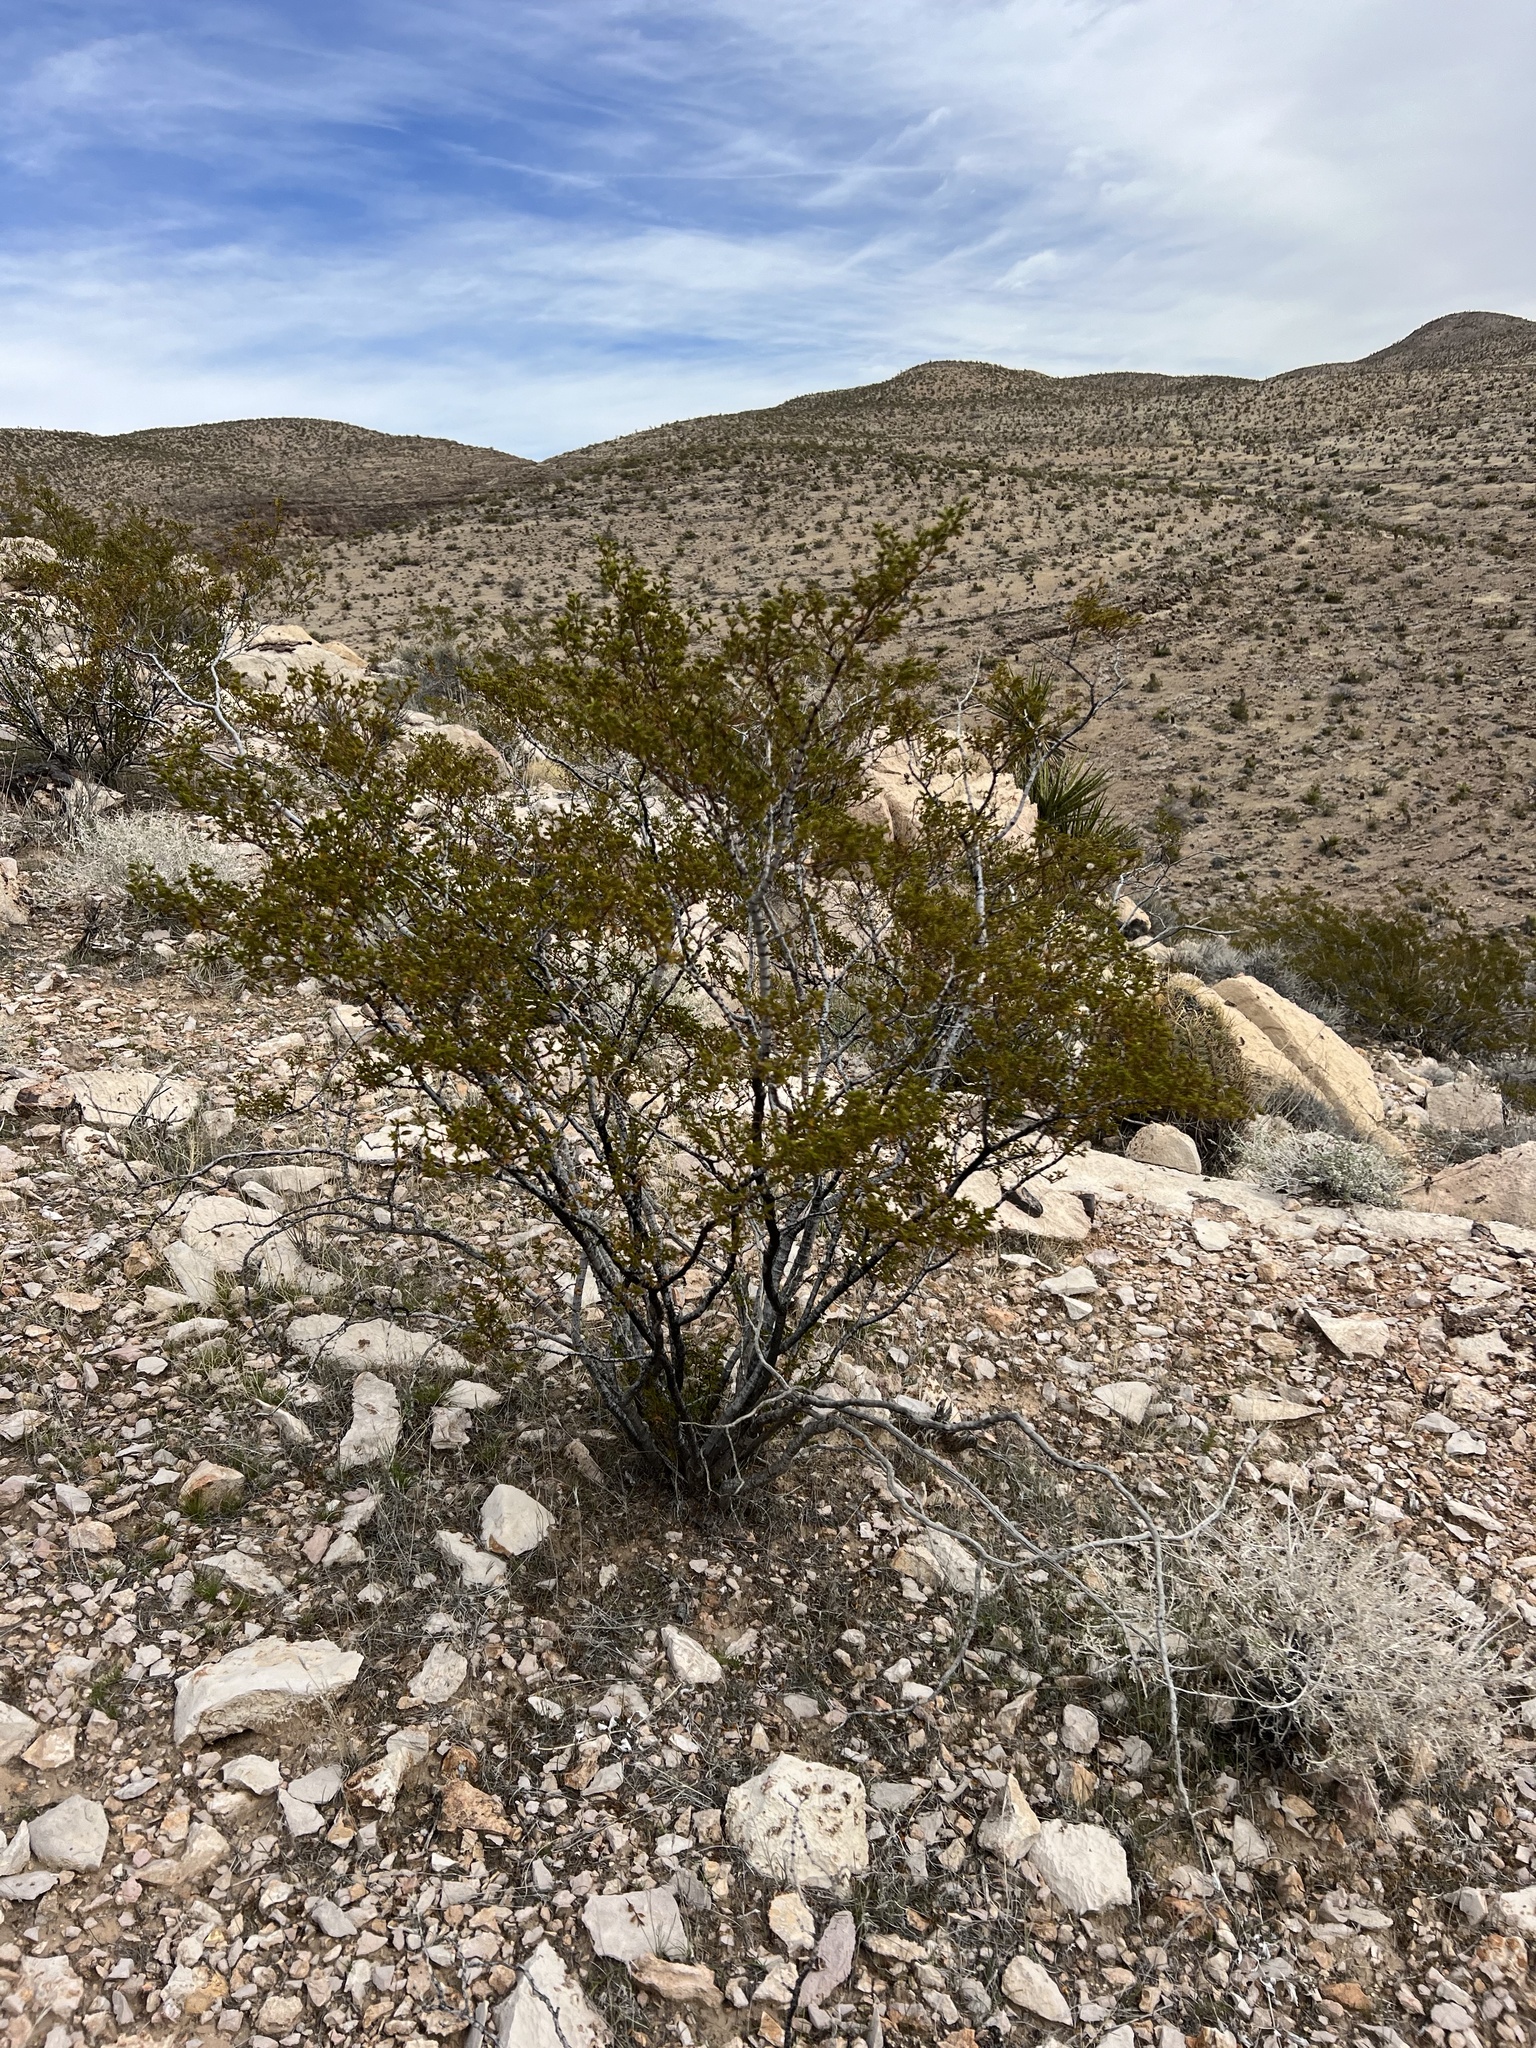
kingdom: Plantae
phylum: Tracheophyta
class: Magnoliopsida
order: Zygophyllales
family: Zygophyllaceae
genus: Larrea
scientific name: Larrea tridentata
